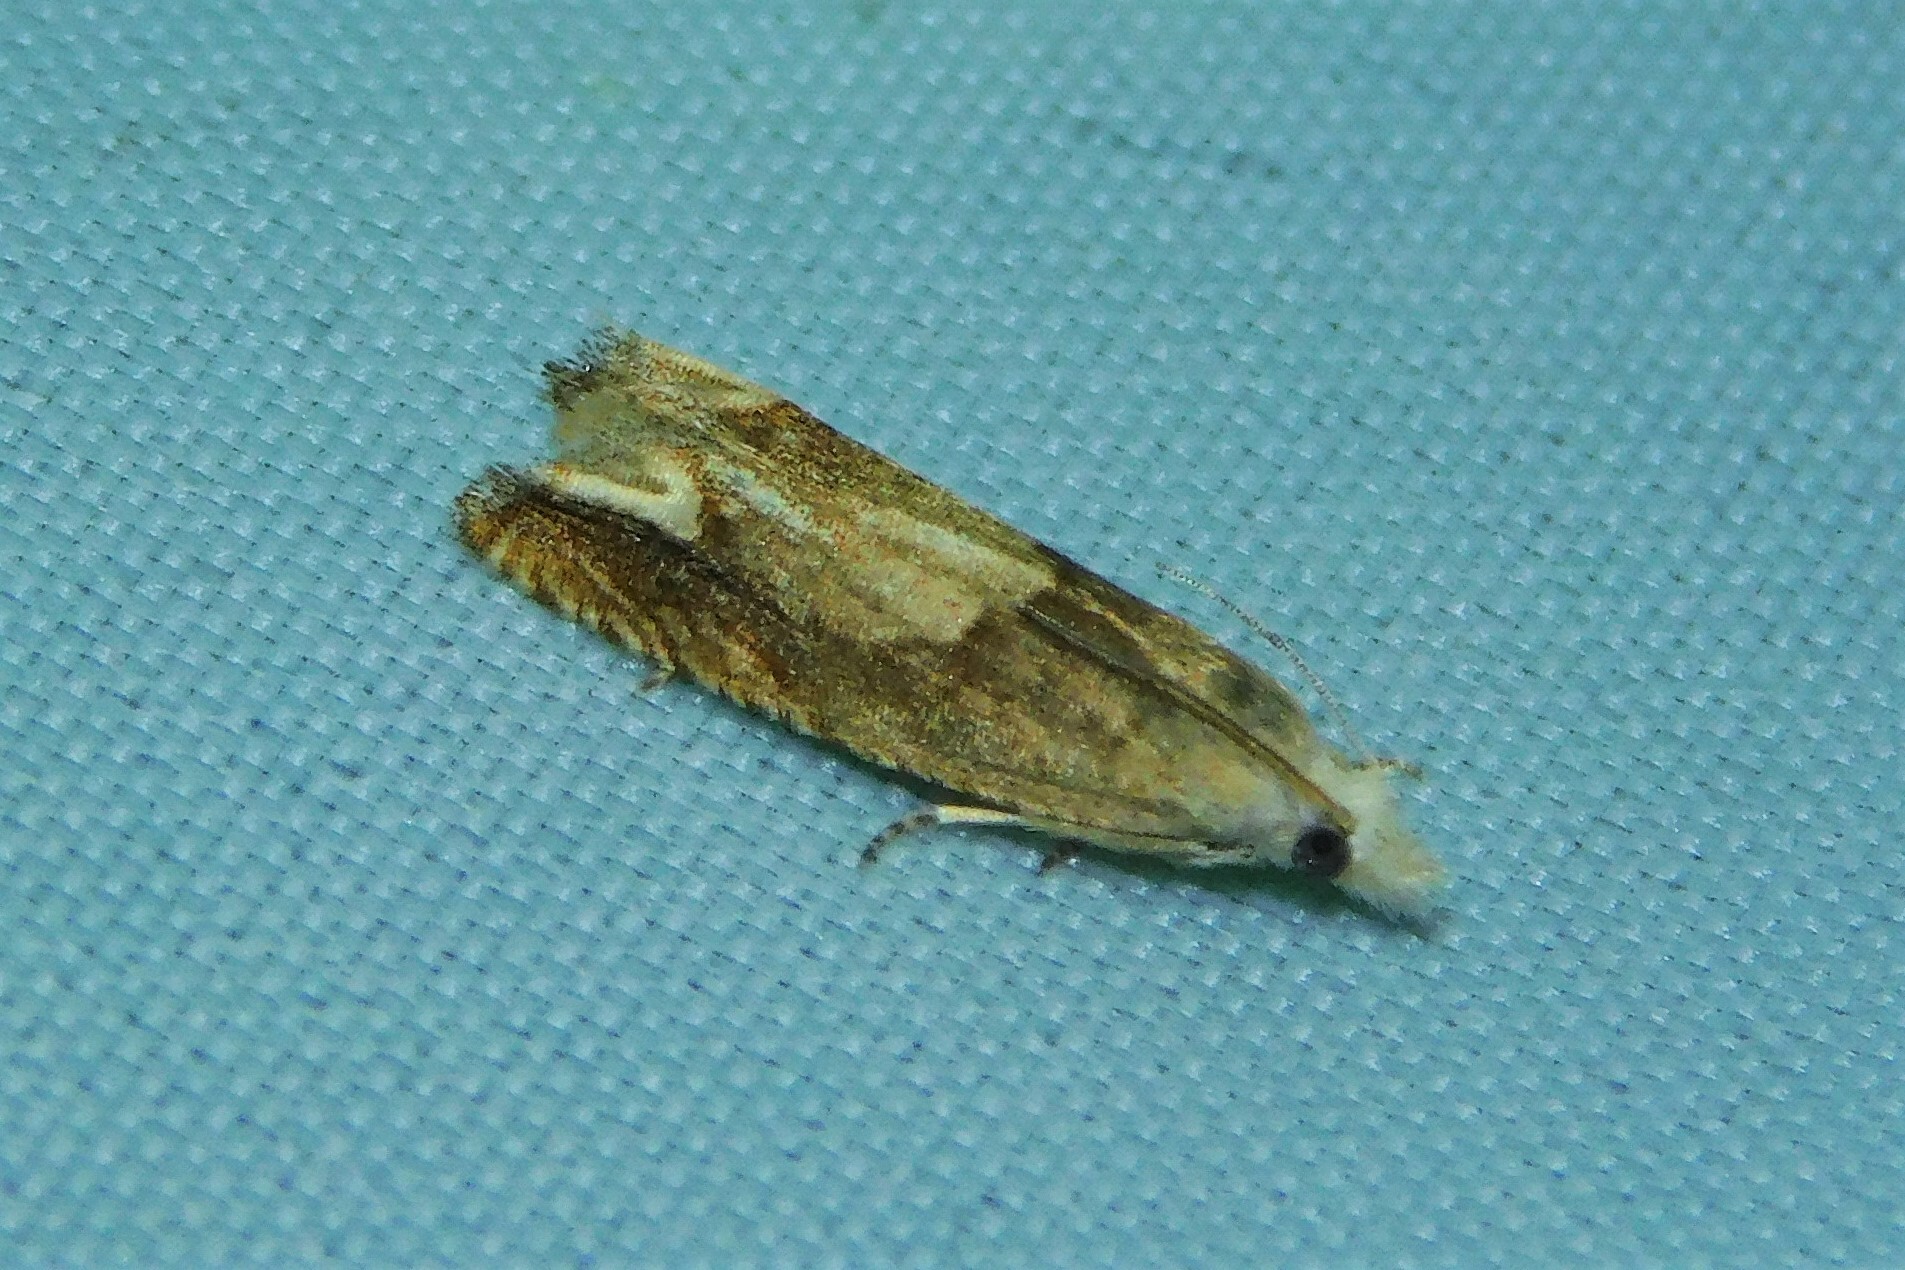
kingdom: Animalia
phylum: Arthropoda
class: Insecta
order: Lepidoptera
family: Tortricidae
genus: Eucosma
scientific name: Eucosma conterminana
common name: Pale lettuce bell
